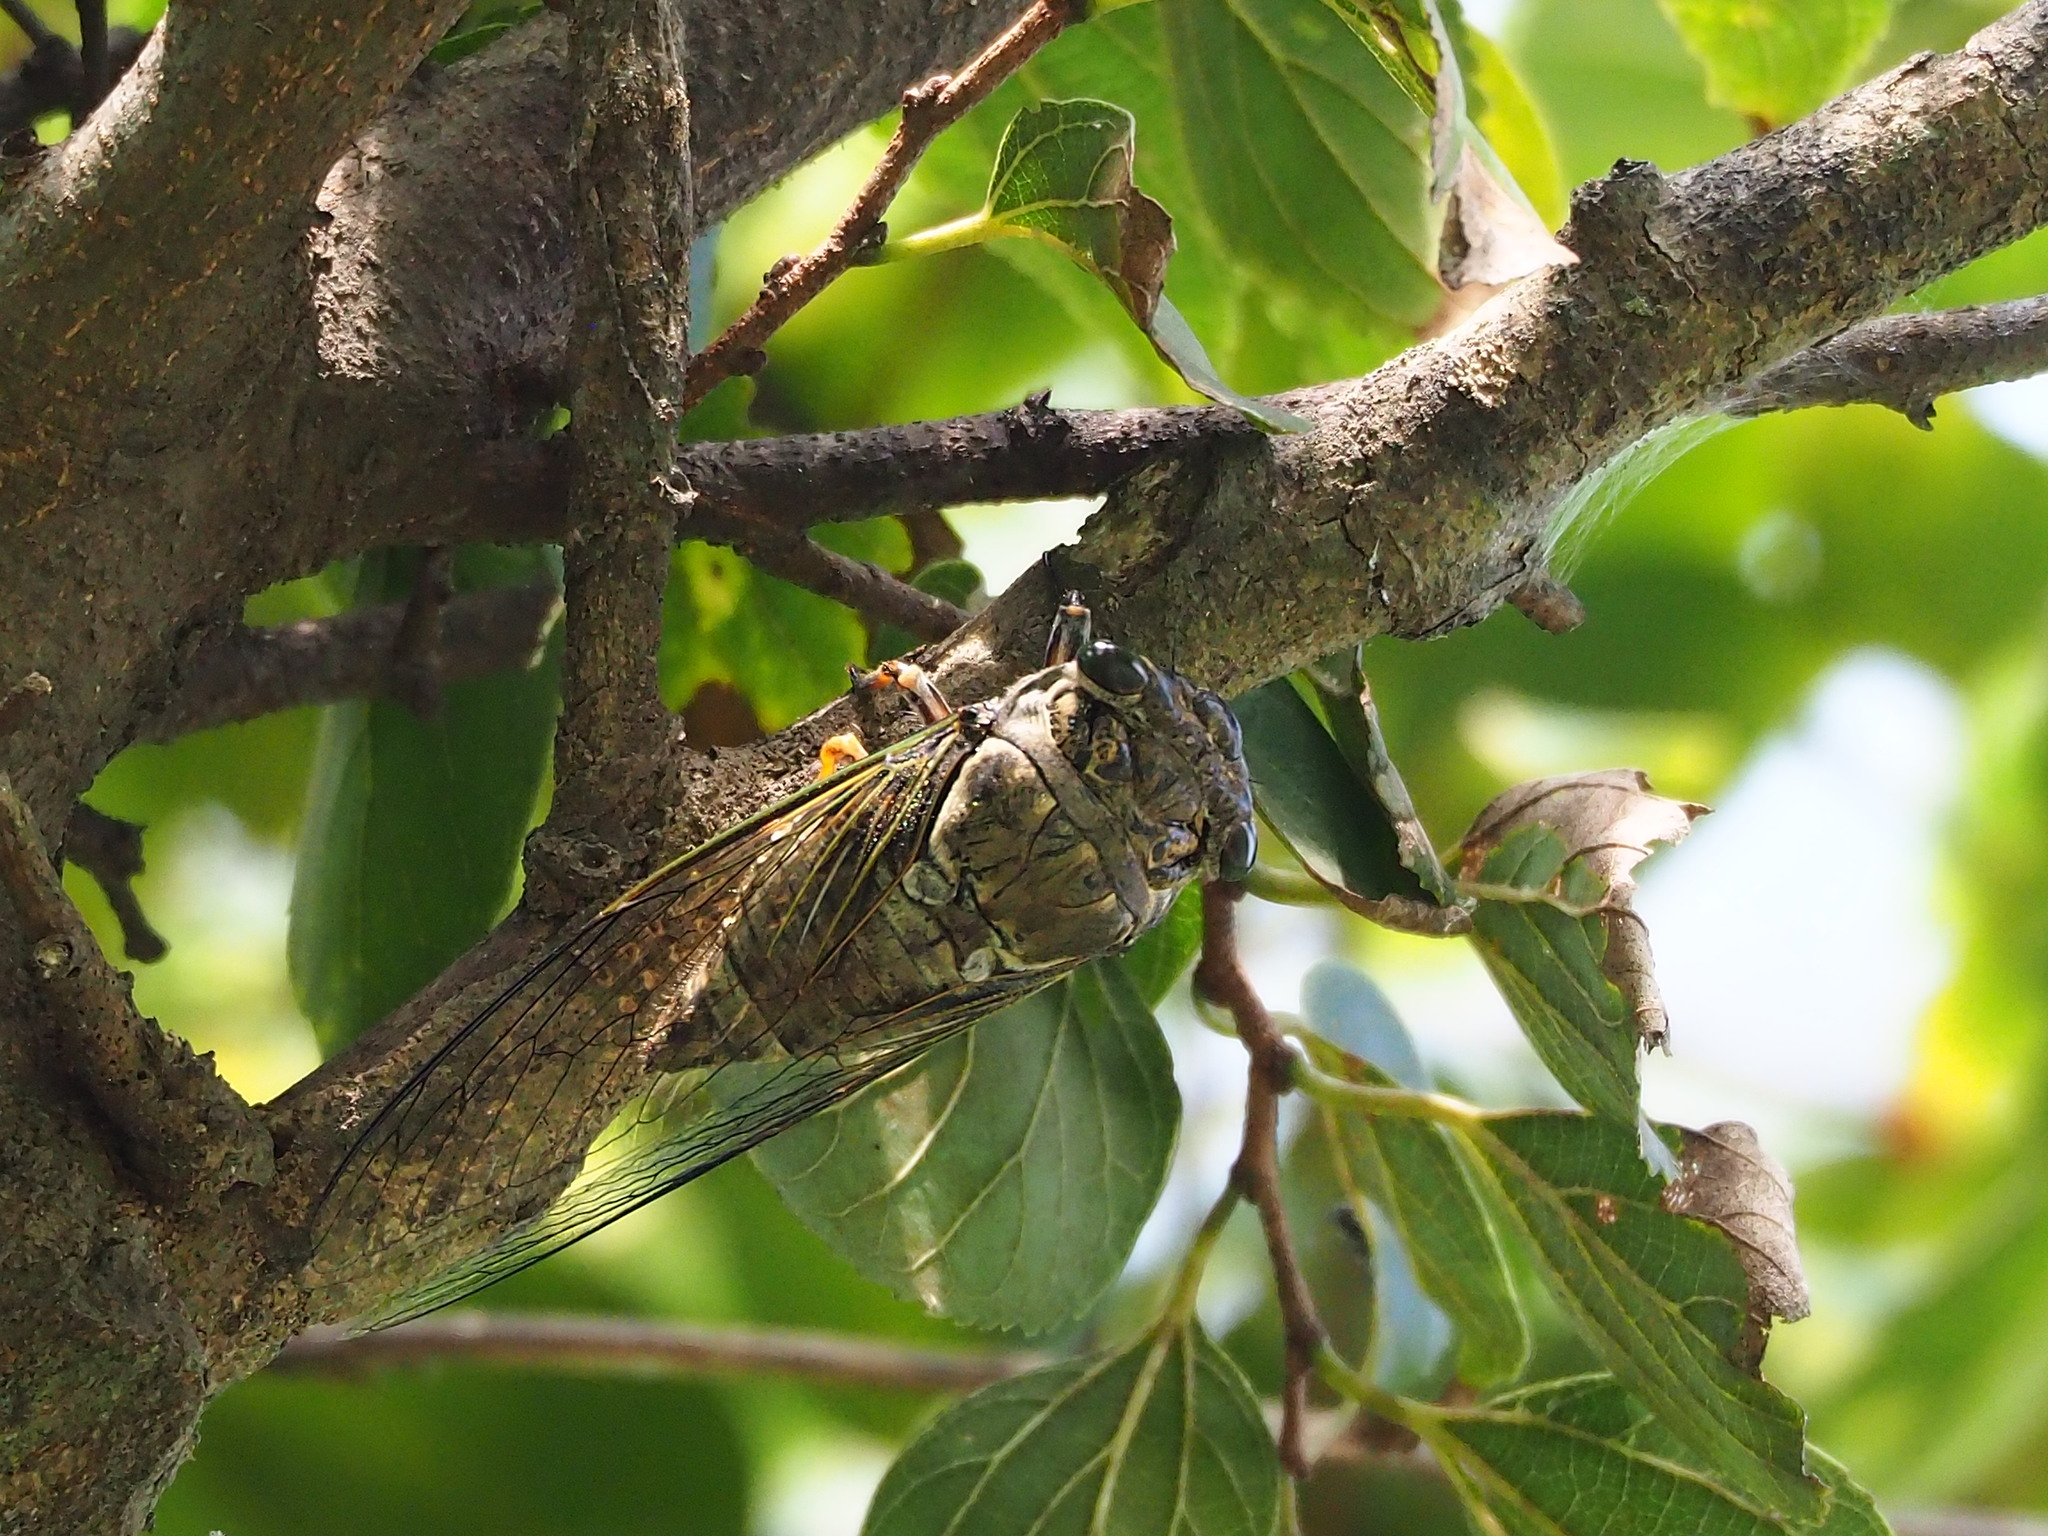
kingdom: Animalia
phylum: Arthropoda
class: Insecta
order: Hemiptera
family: Cicadidae
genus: Cryptotympana
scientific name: Cryptotympana takasagona
